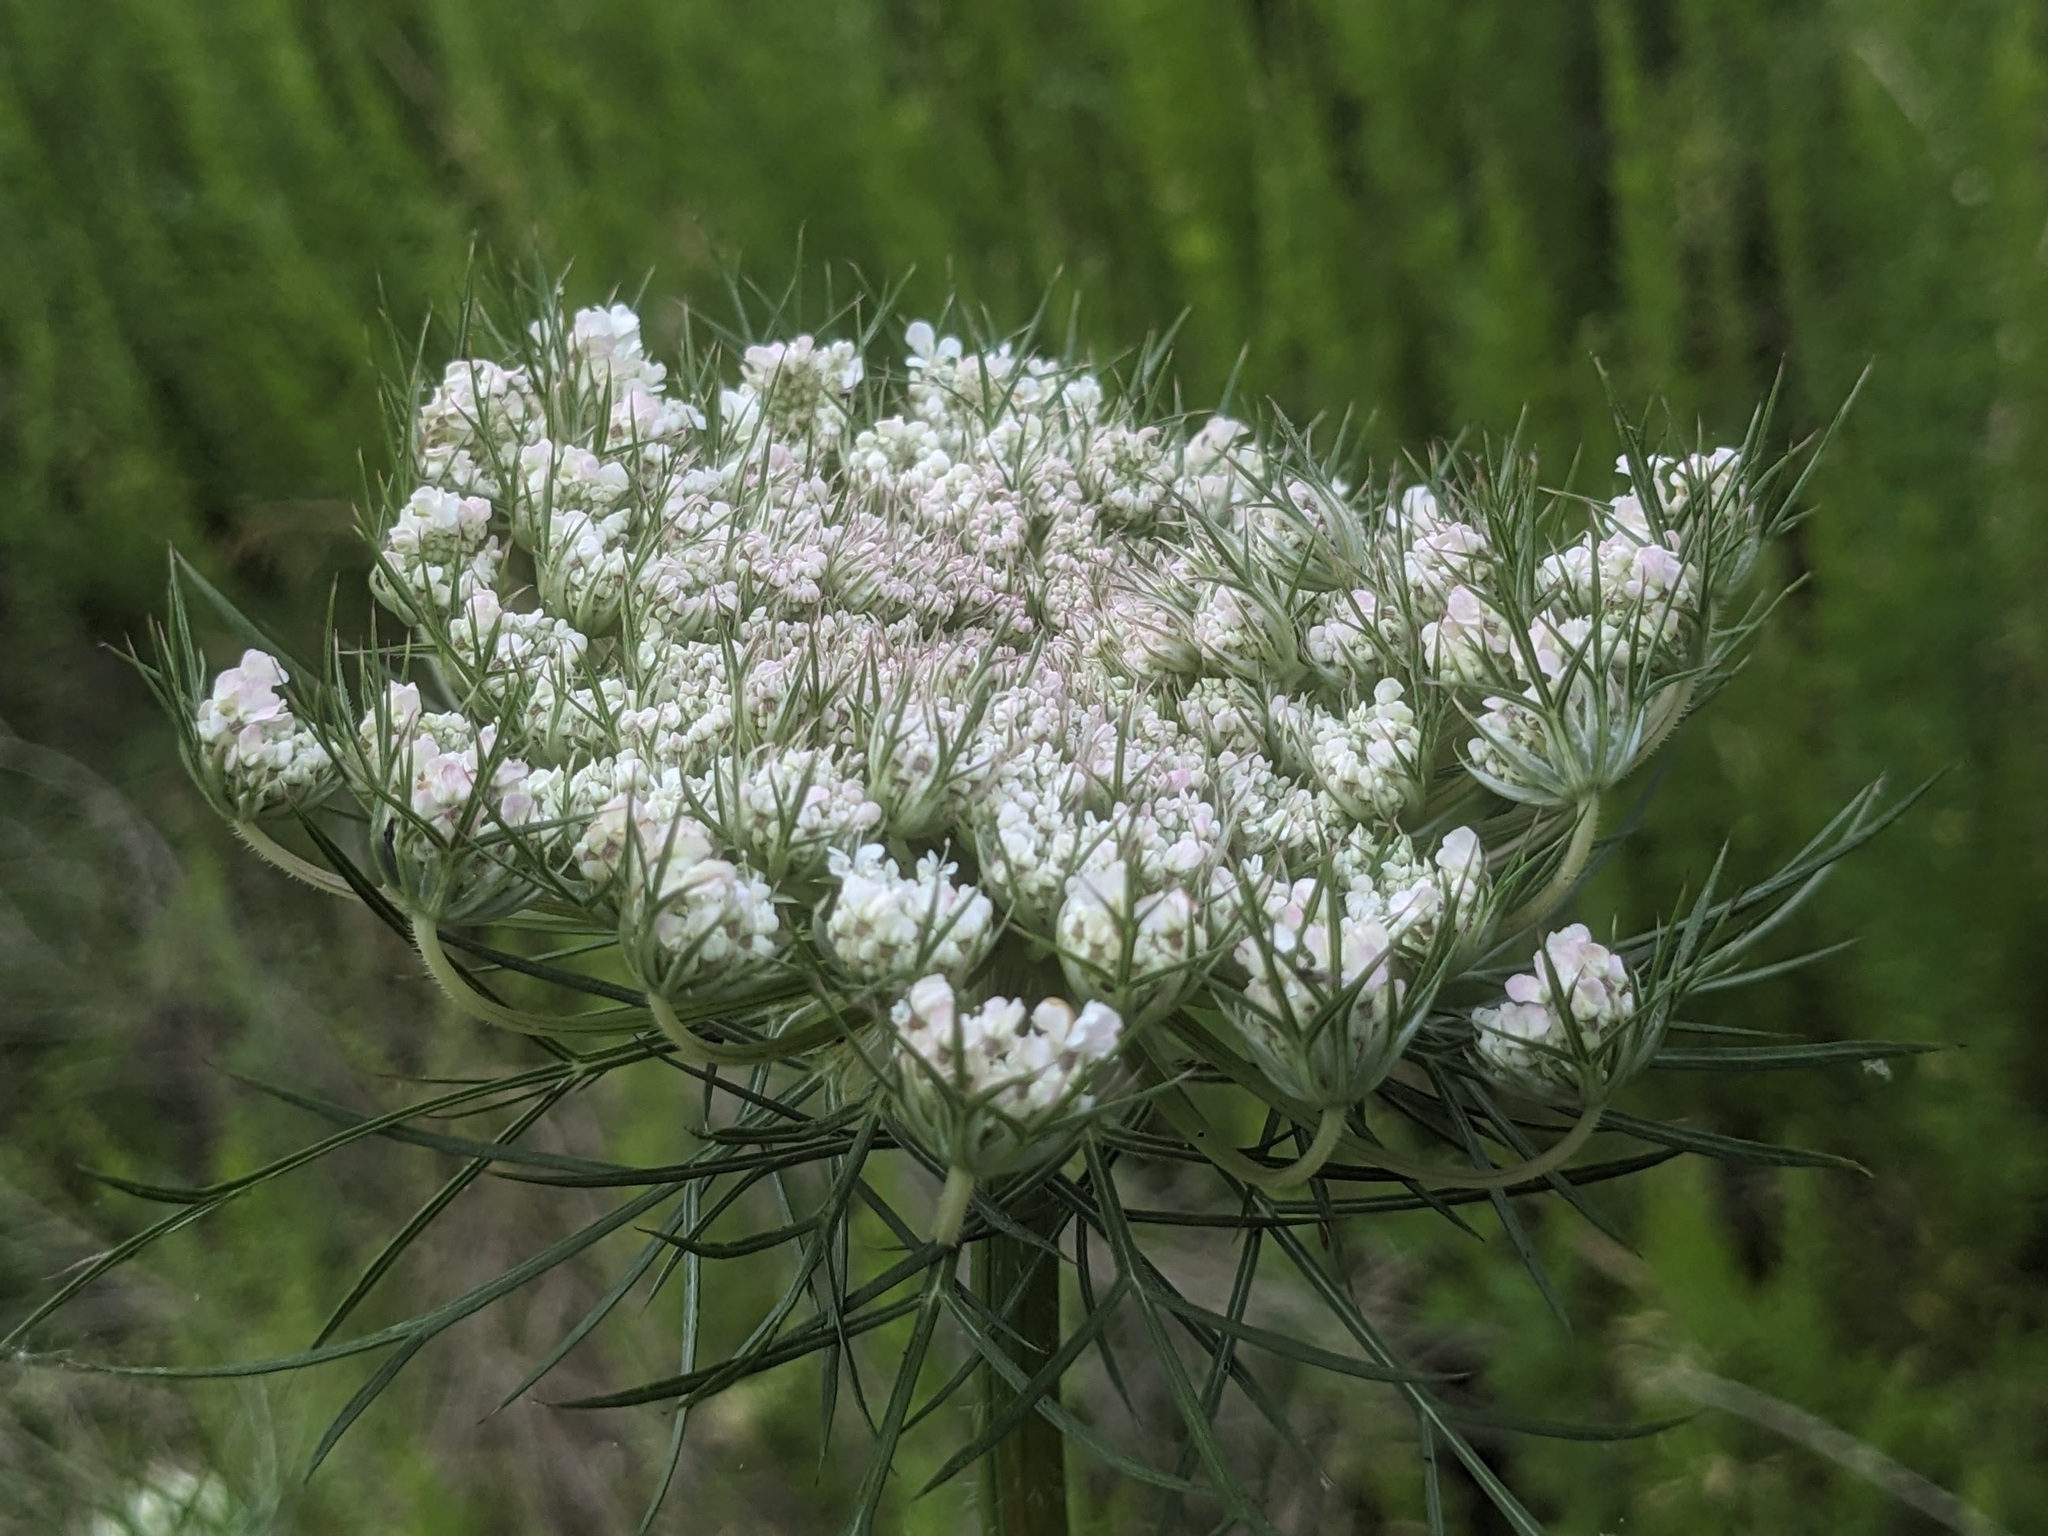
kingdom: Plantae
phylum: Tracheophyta
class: Magnoliopsida
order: Apiales
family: Apiaceae
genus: Daucus
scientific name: Daucus carota
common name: Wild carrot
